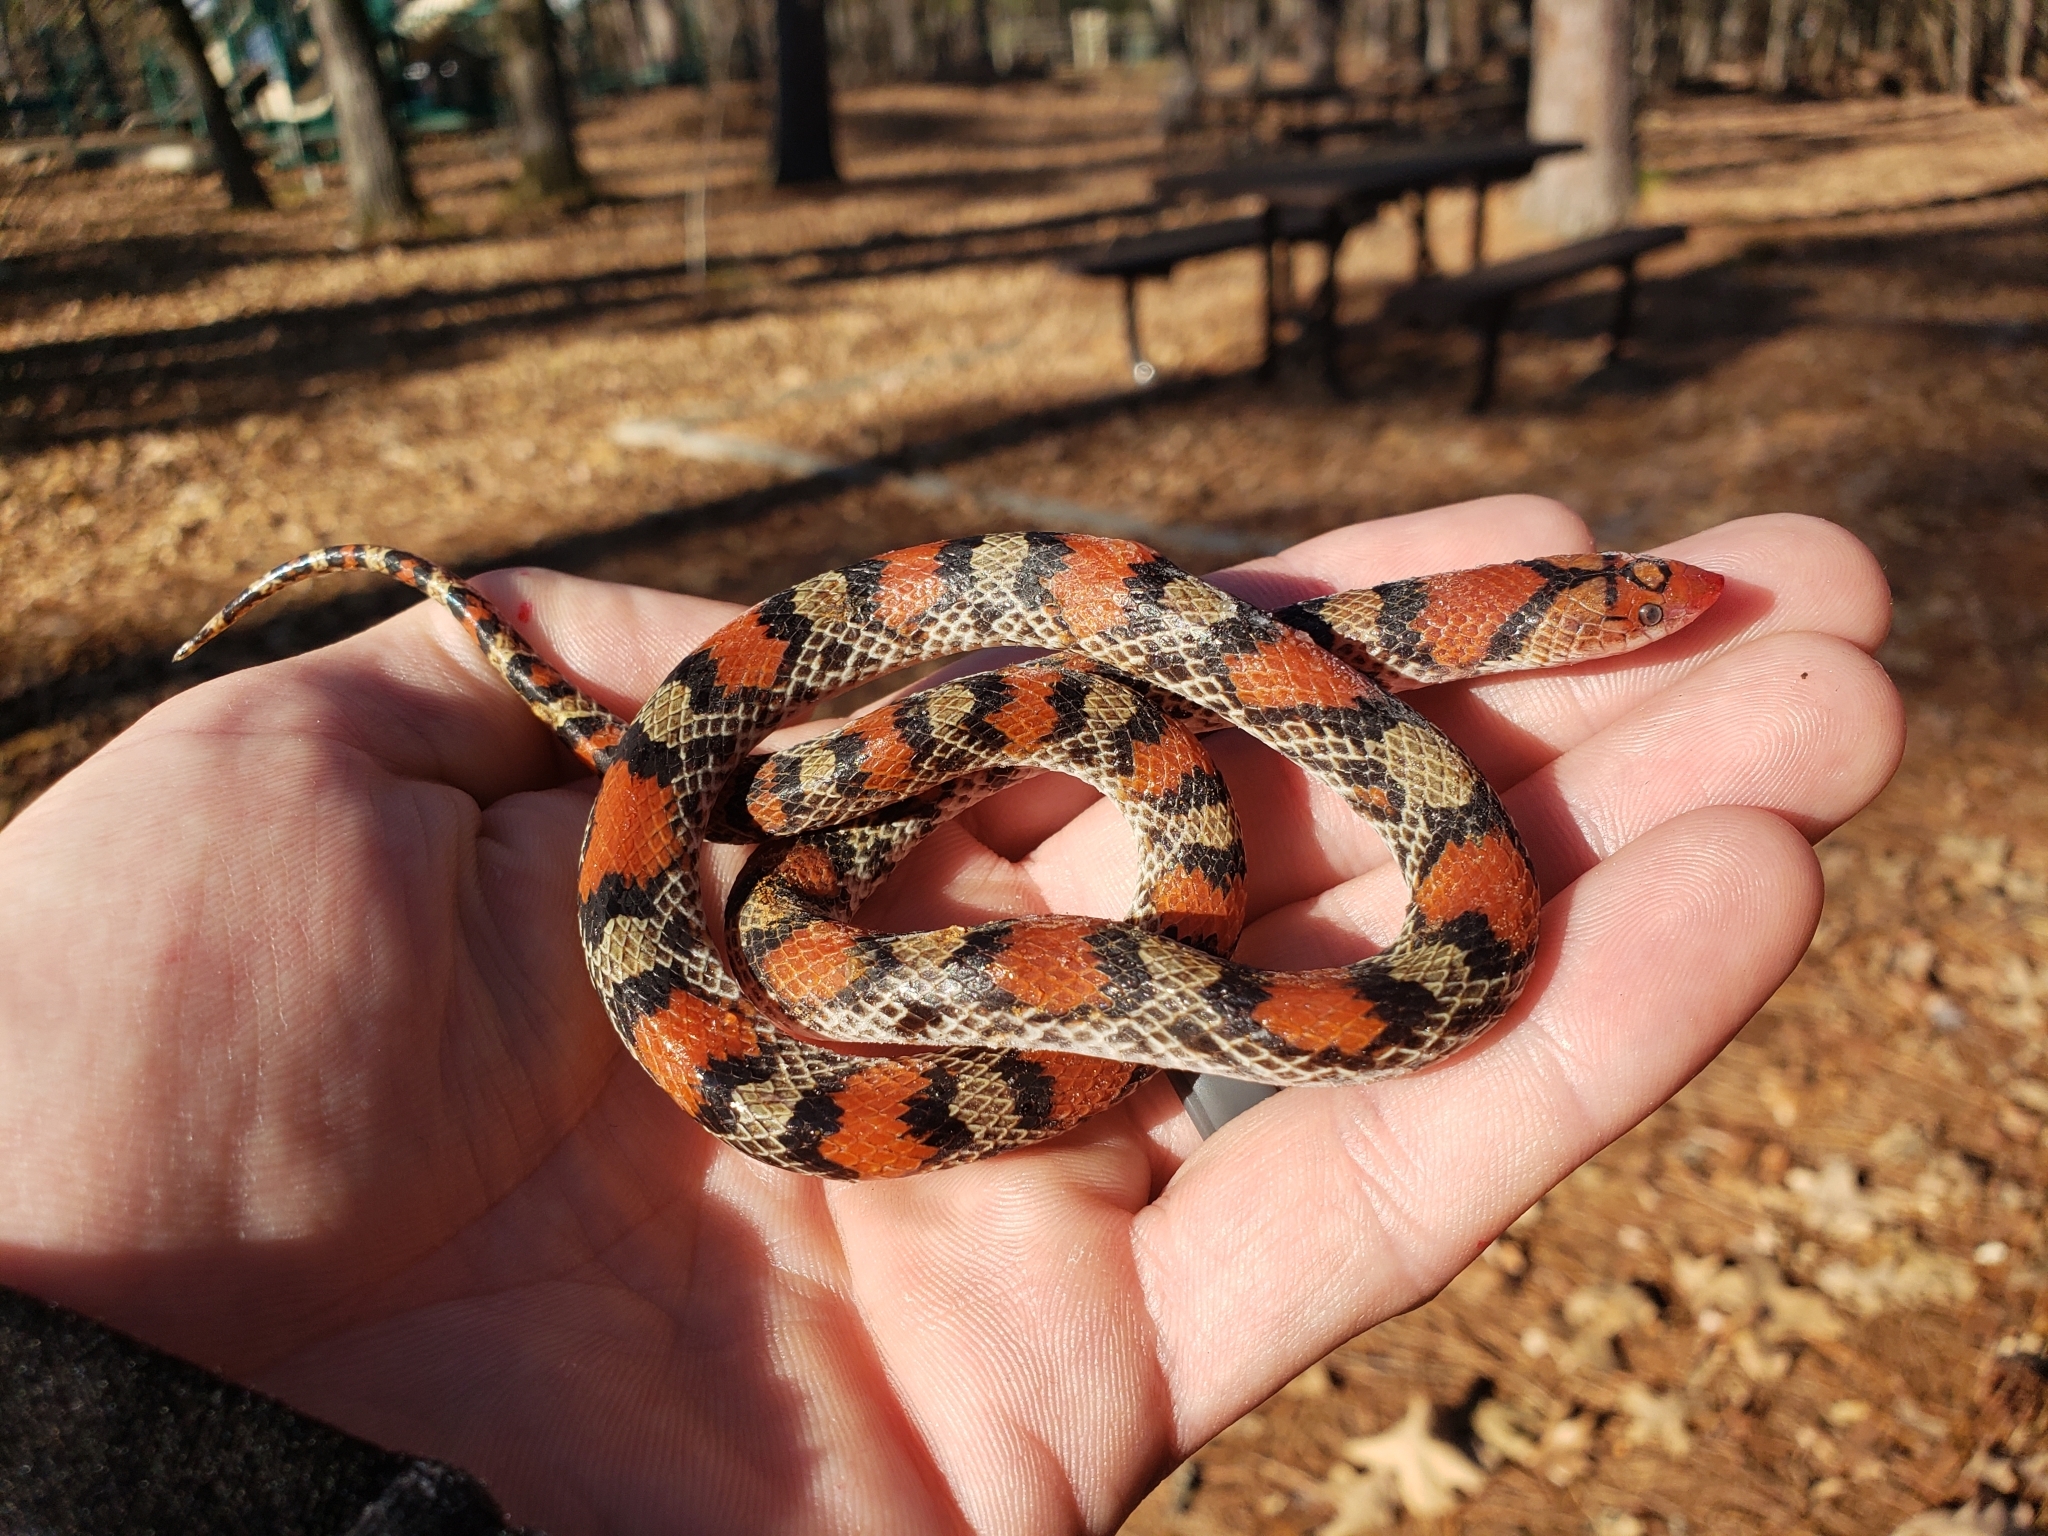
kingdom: Animalia
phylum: Chordata
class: Squamata
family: Colubridae
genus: Cemophora
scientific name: Cemophora coccinea
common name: Scarlet snake
